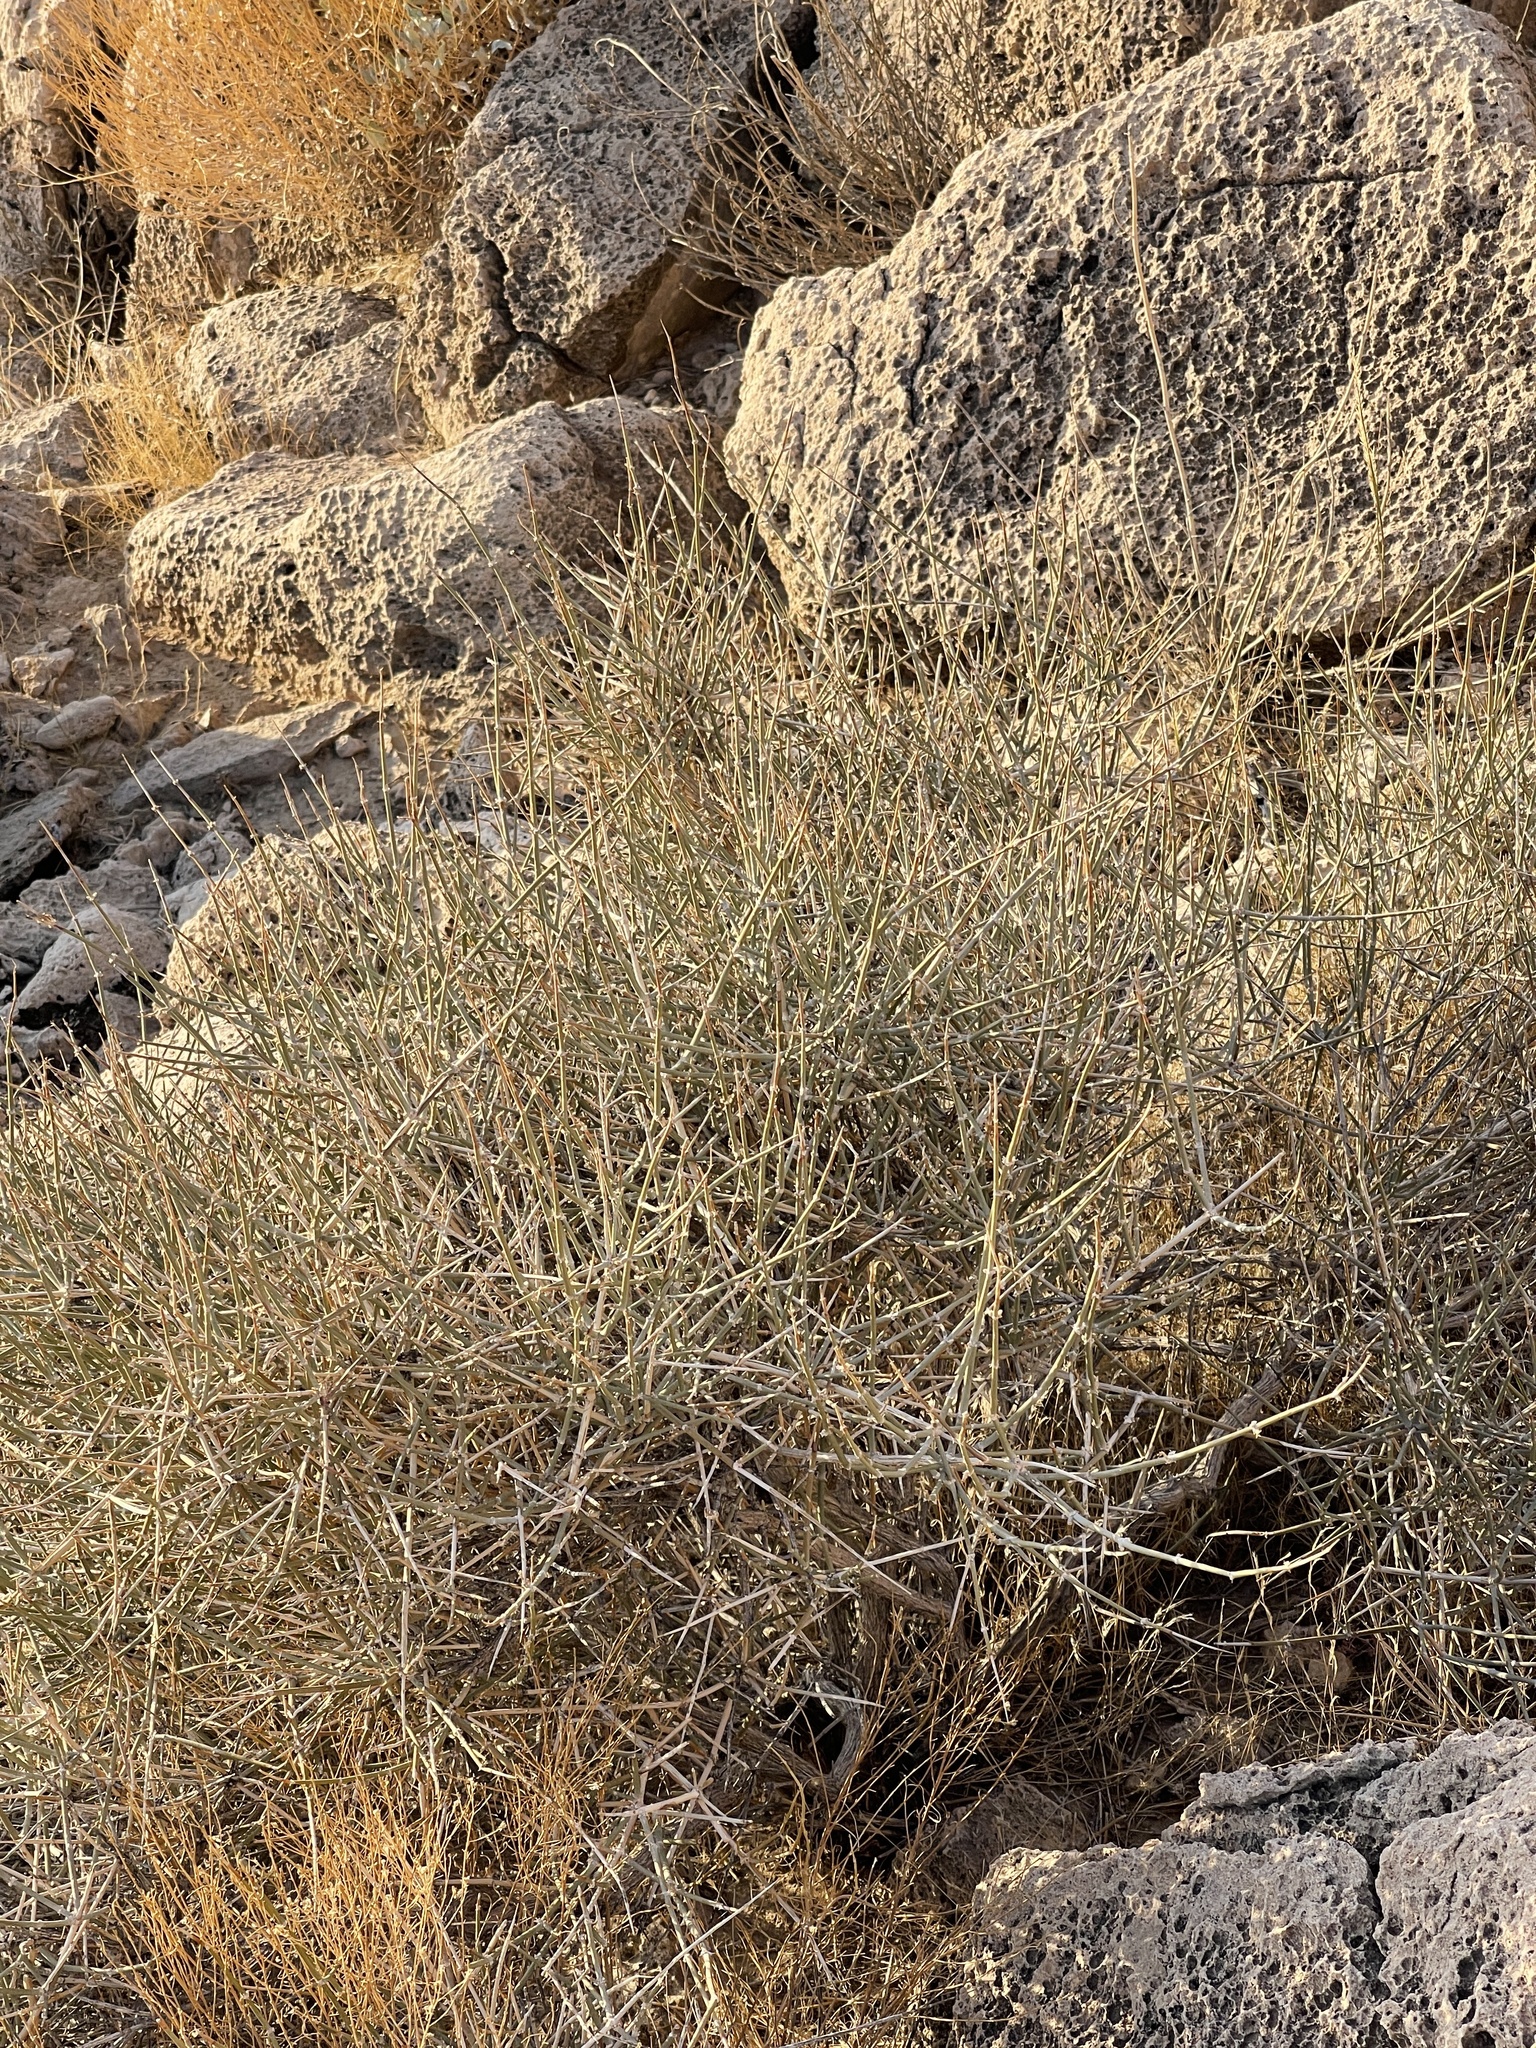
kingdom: Plantae
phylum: Tracheophyta
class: Gnetopsida
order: Ephedrales
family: Ephedraceae
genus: Ephedra
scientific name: Ephedra nevadensis
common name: Gray ephedra
